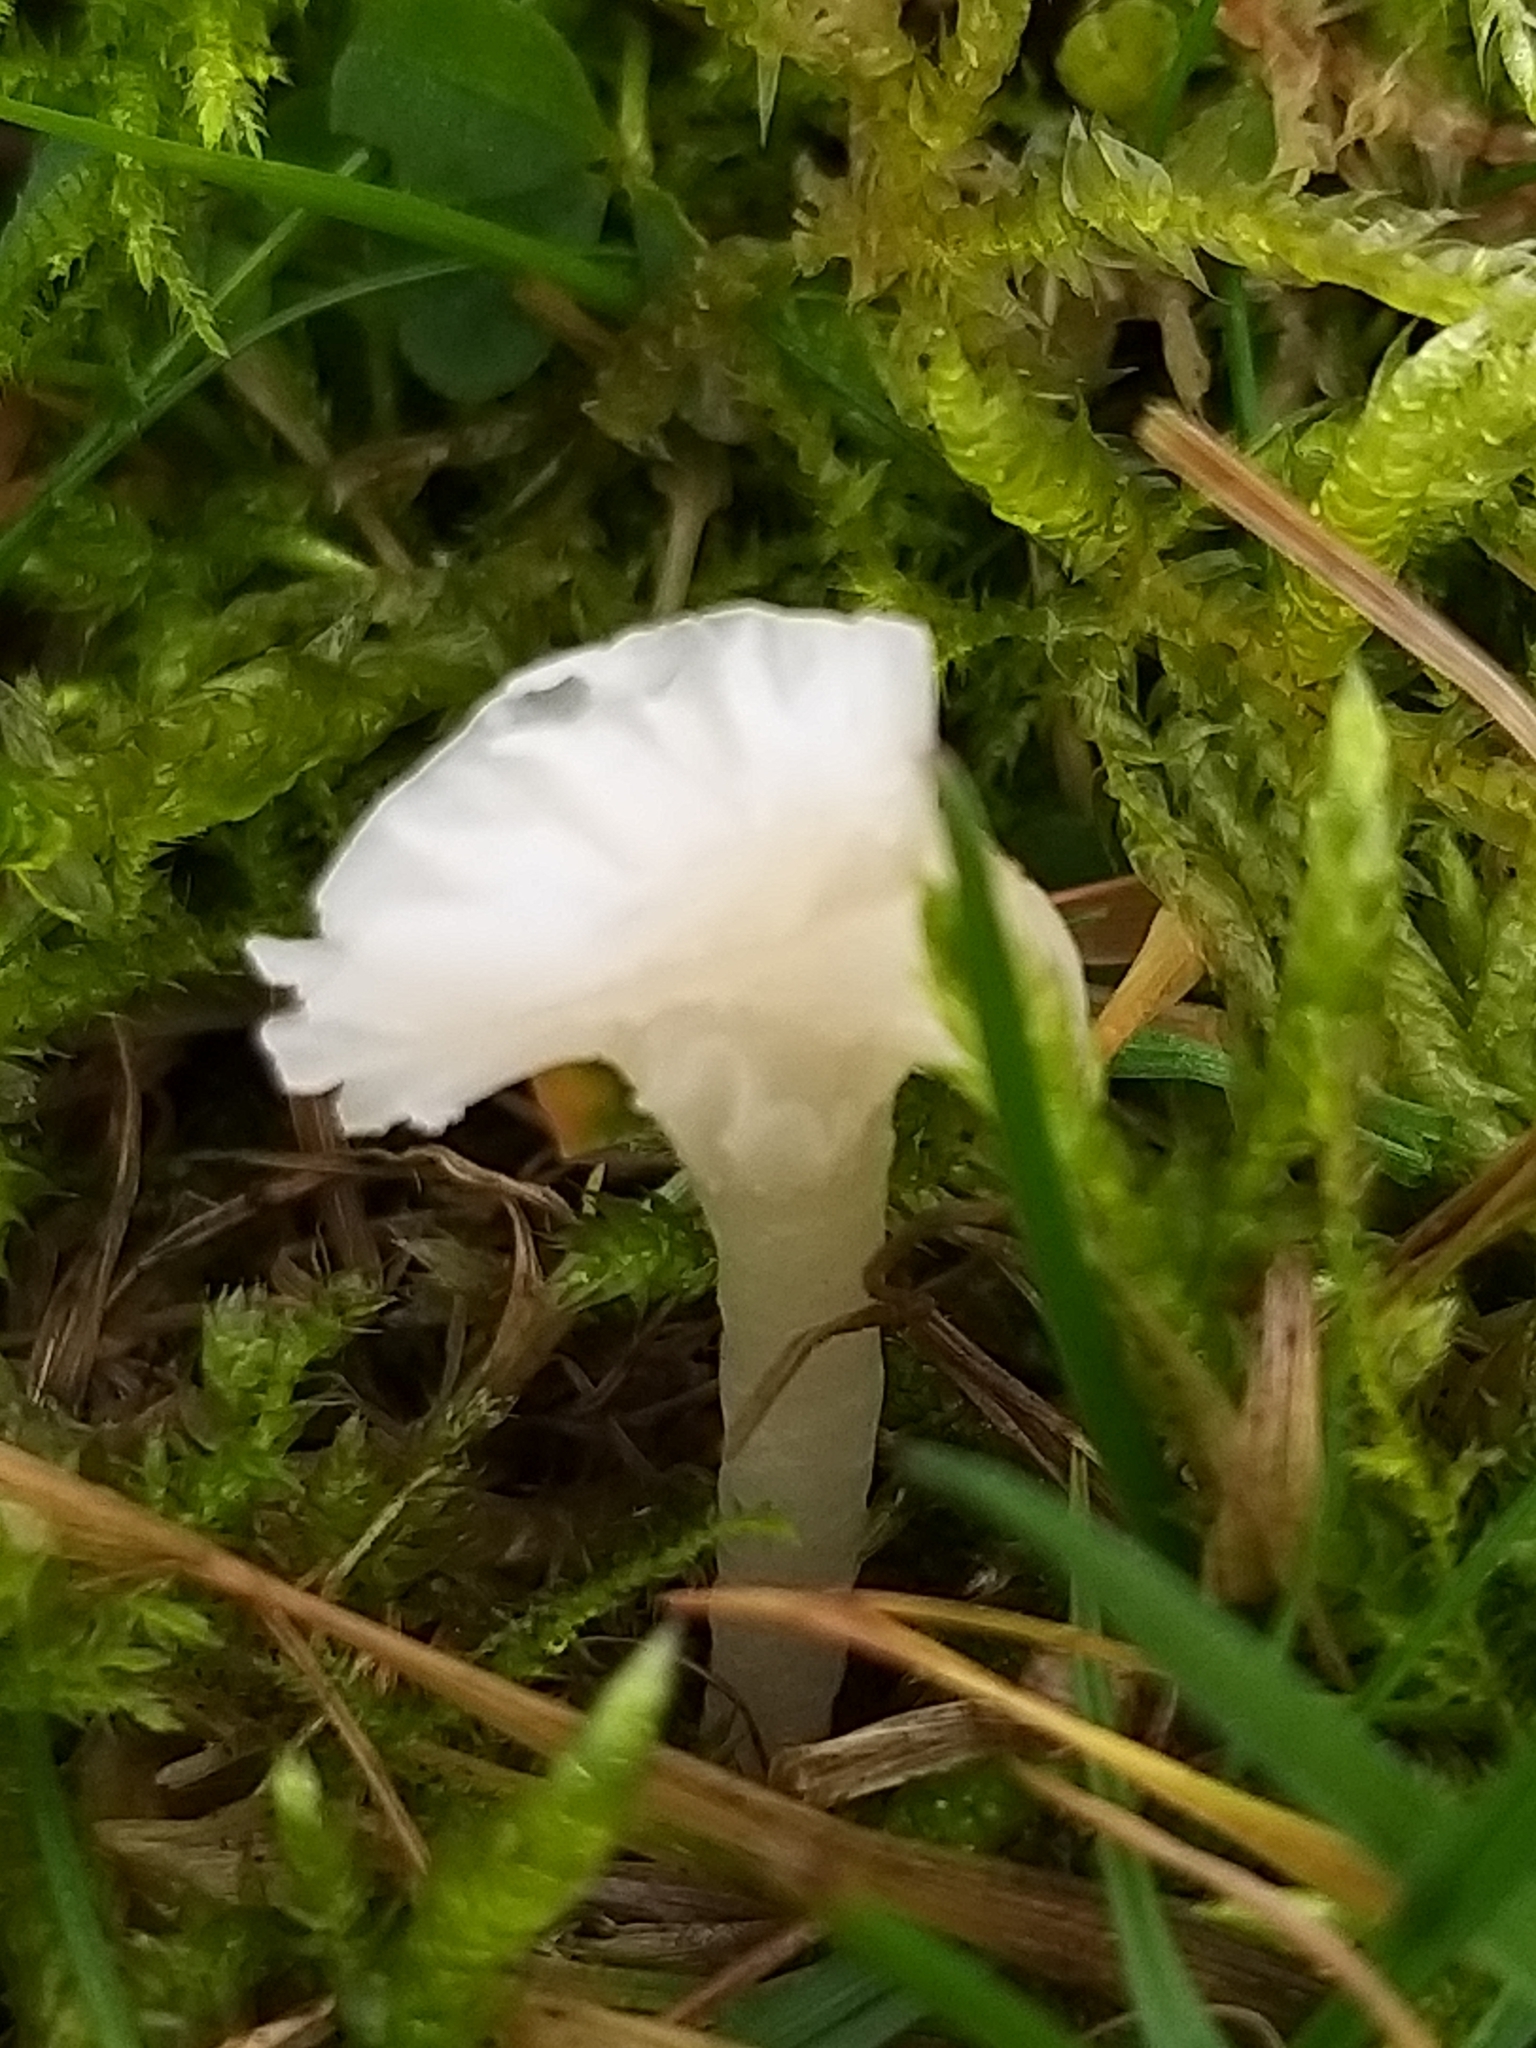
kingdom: Fungi
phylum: Basidiomycota
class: Agaricomycetes
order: Agaricales
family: Hygrophoraceae
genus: Cuphophyllus
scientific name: Cuphophyllus virgineus
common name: Snowy waxcap
